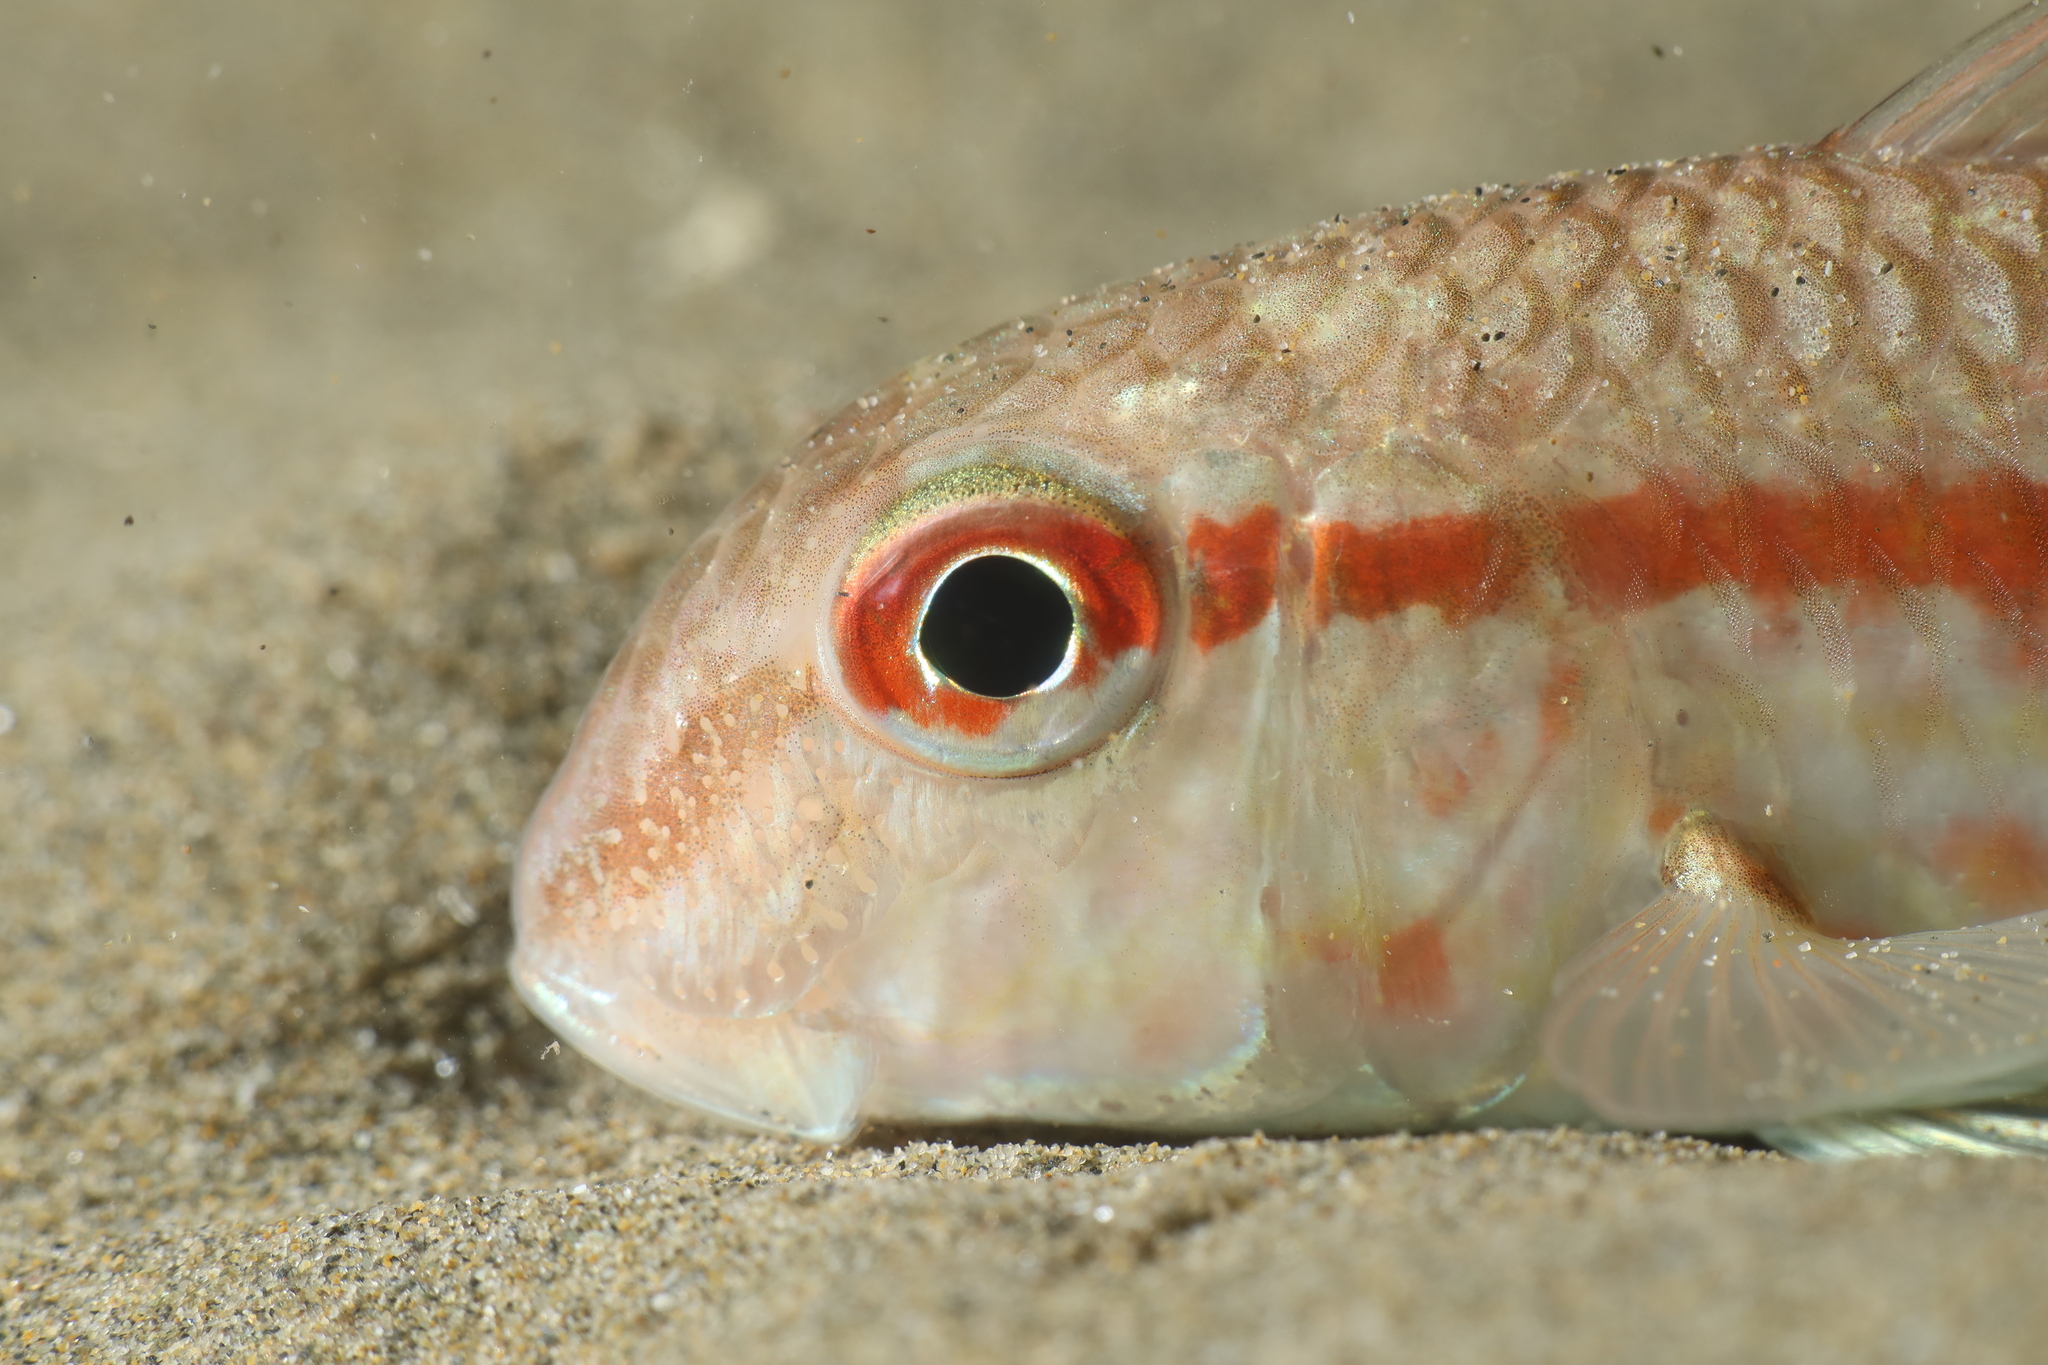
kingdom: Animalia
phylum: Chordata
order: Perciformes
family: Mullidae
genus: Mullus
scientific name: Mullus barbatus
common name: Blunt-snouted mullet
